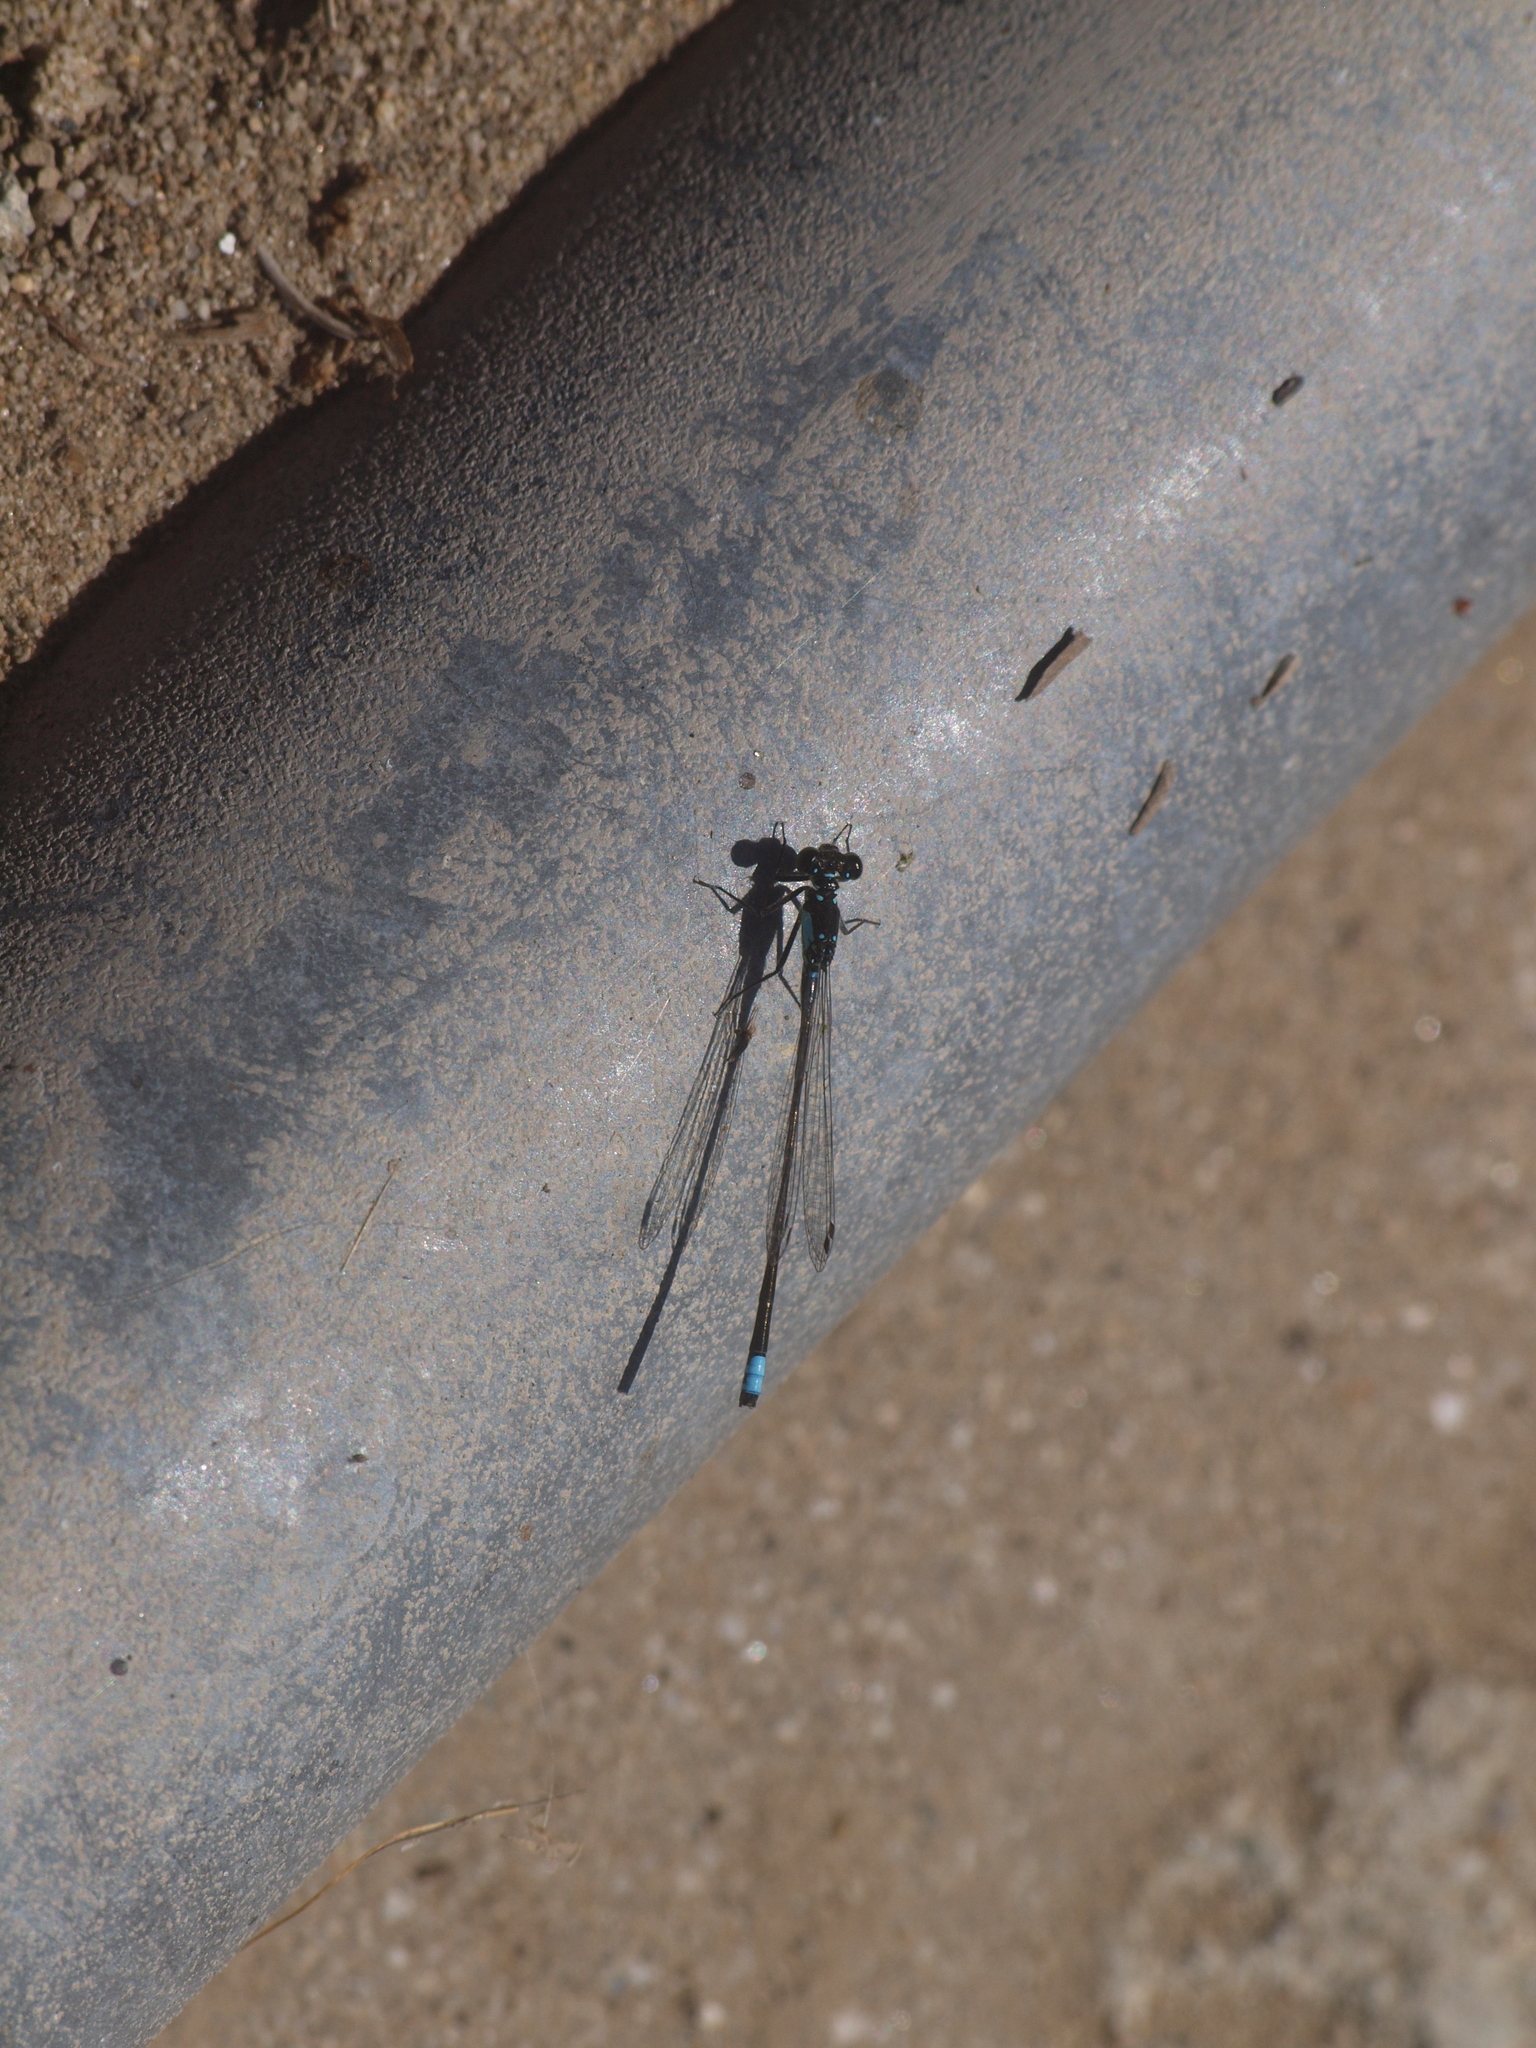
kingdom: Animalia
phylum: Arthropoda
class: Insecta
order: Odonata
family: Coenagrionidae
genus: Ischnura
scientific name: Ischnura cervula
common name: Pacific forktail
